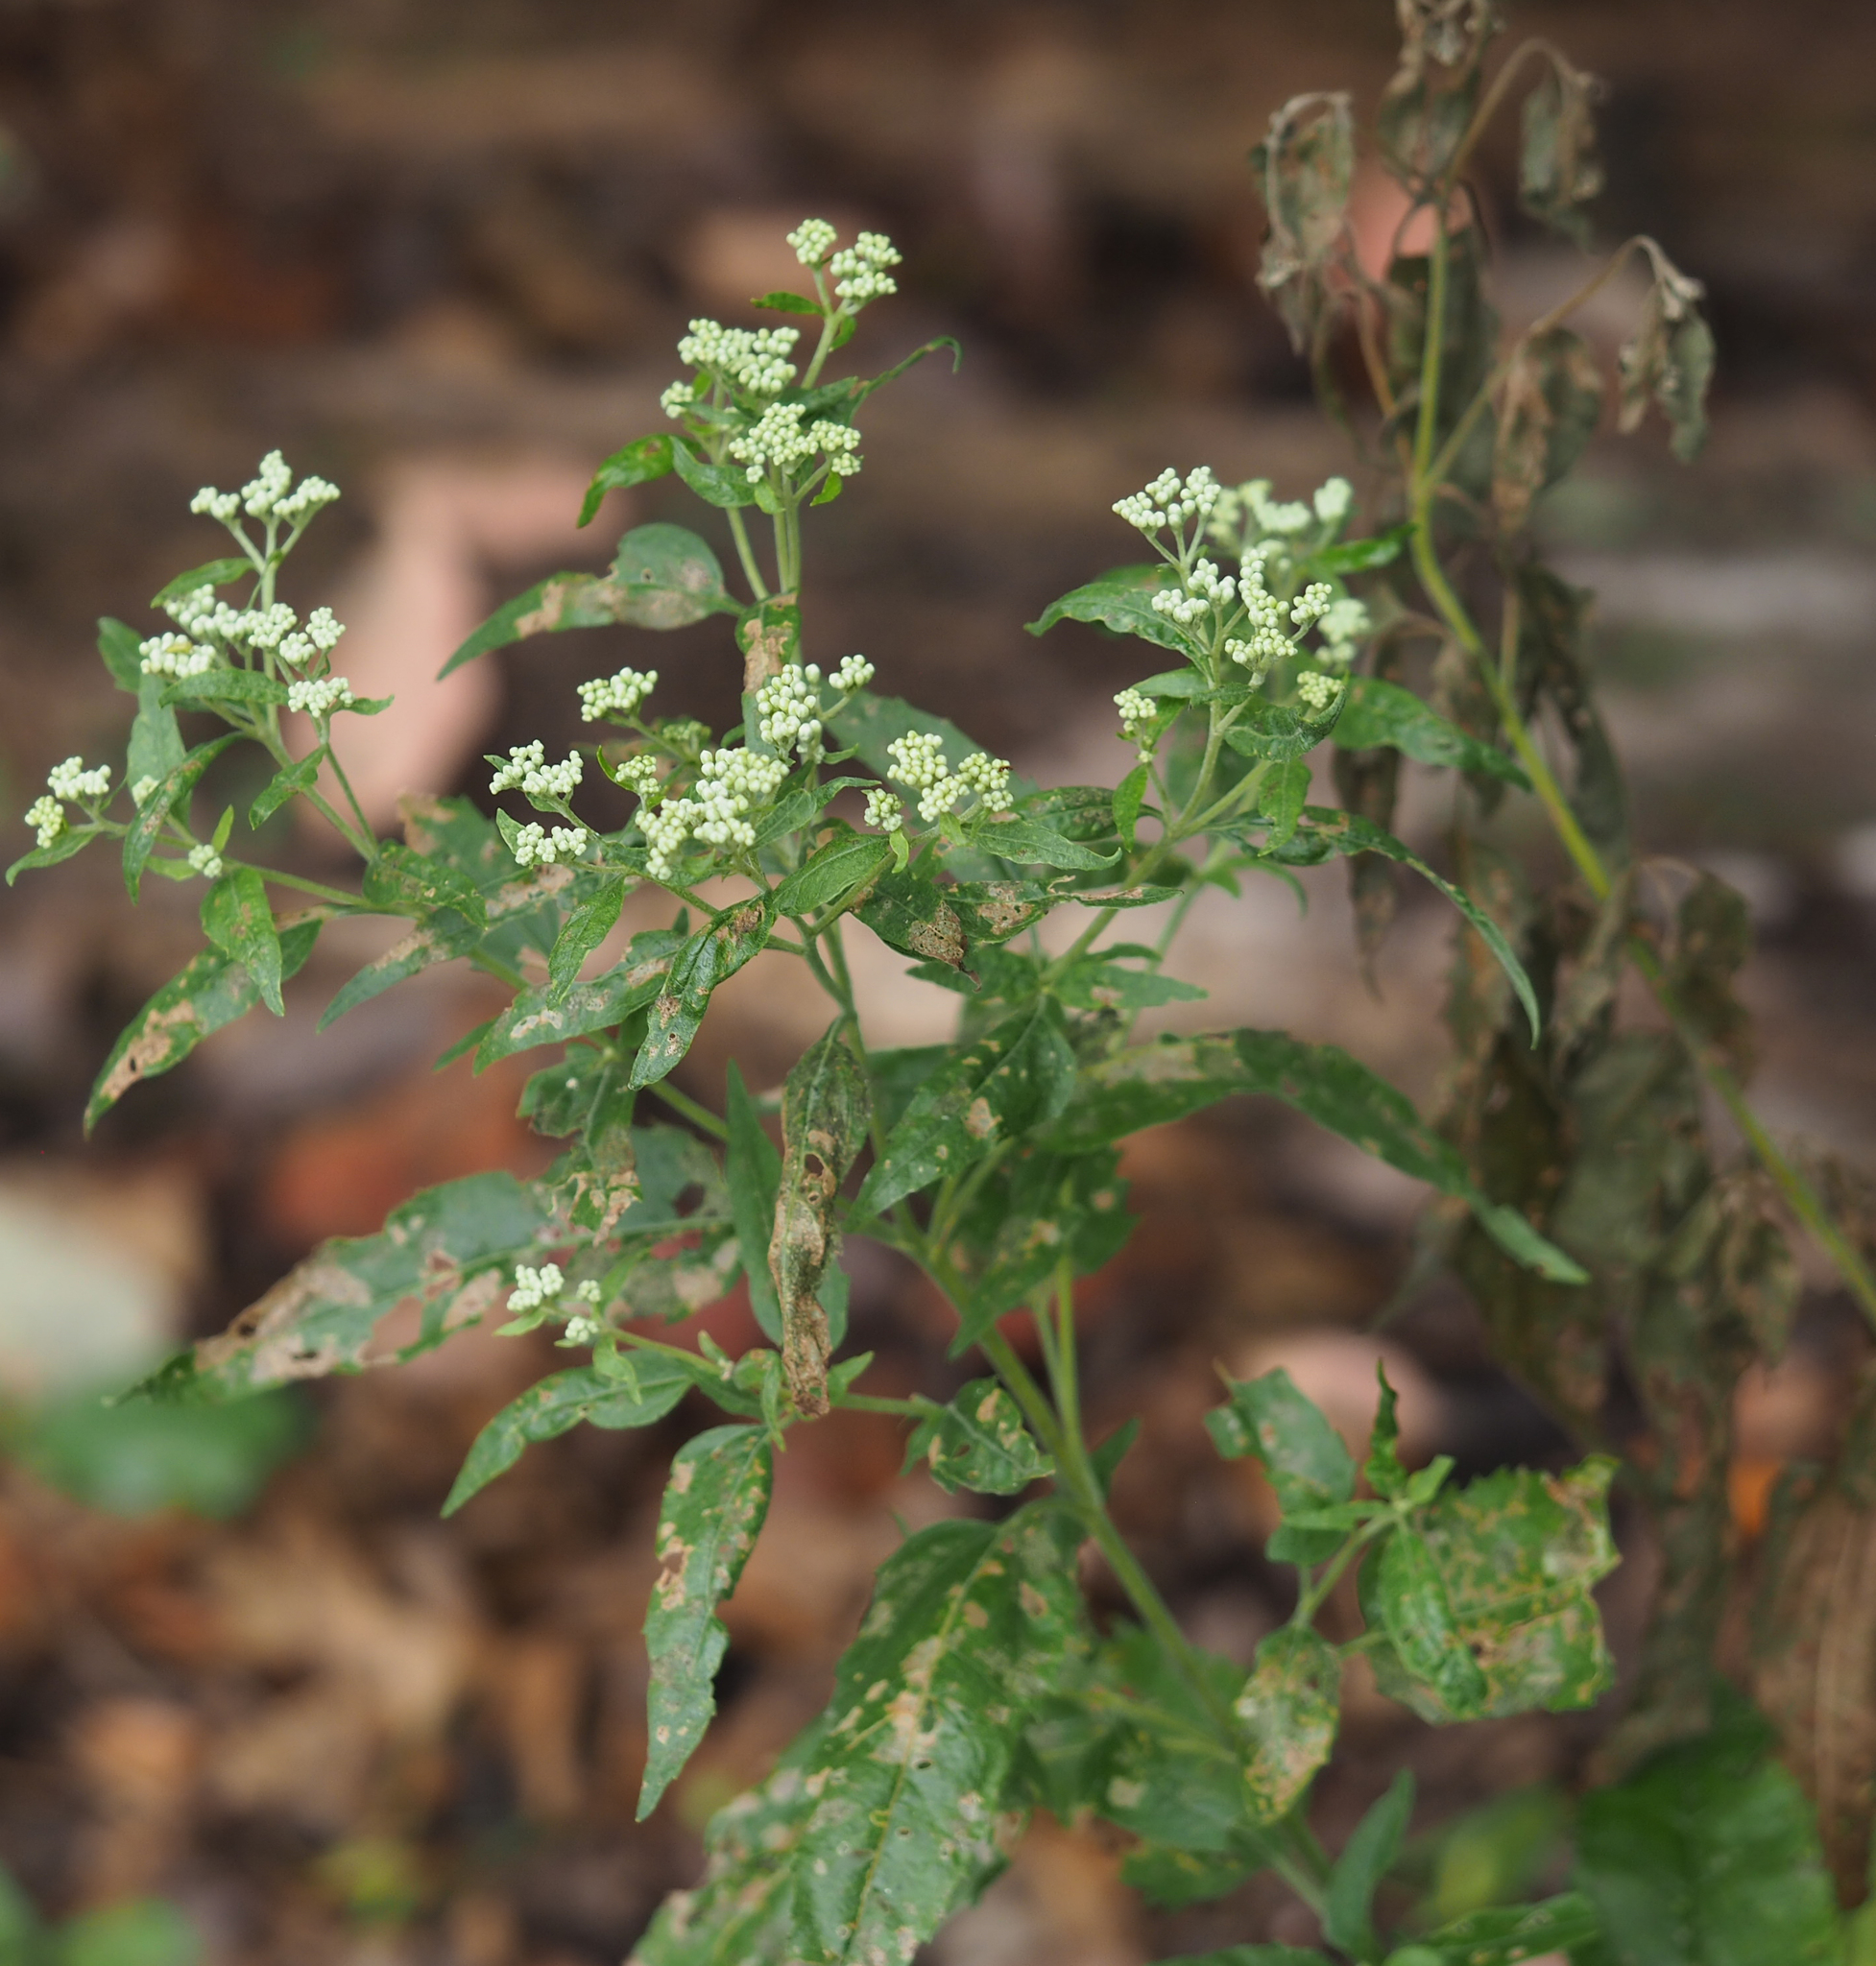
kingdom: Plantae
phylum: Tracheophyta
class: Magnoliopsida
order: Asterales
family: Asteraceae
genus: Eupatorium
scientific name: Eupatorium serotinum
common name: Late boneset
